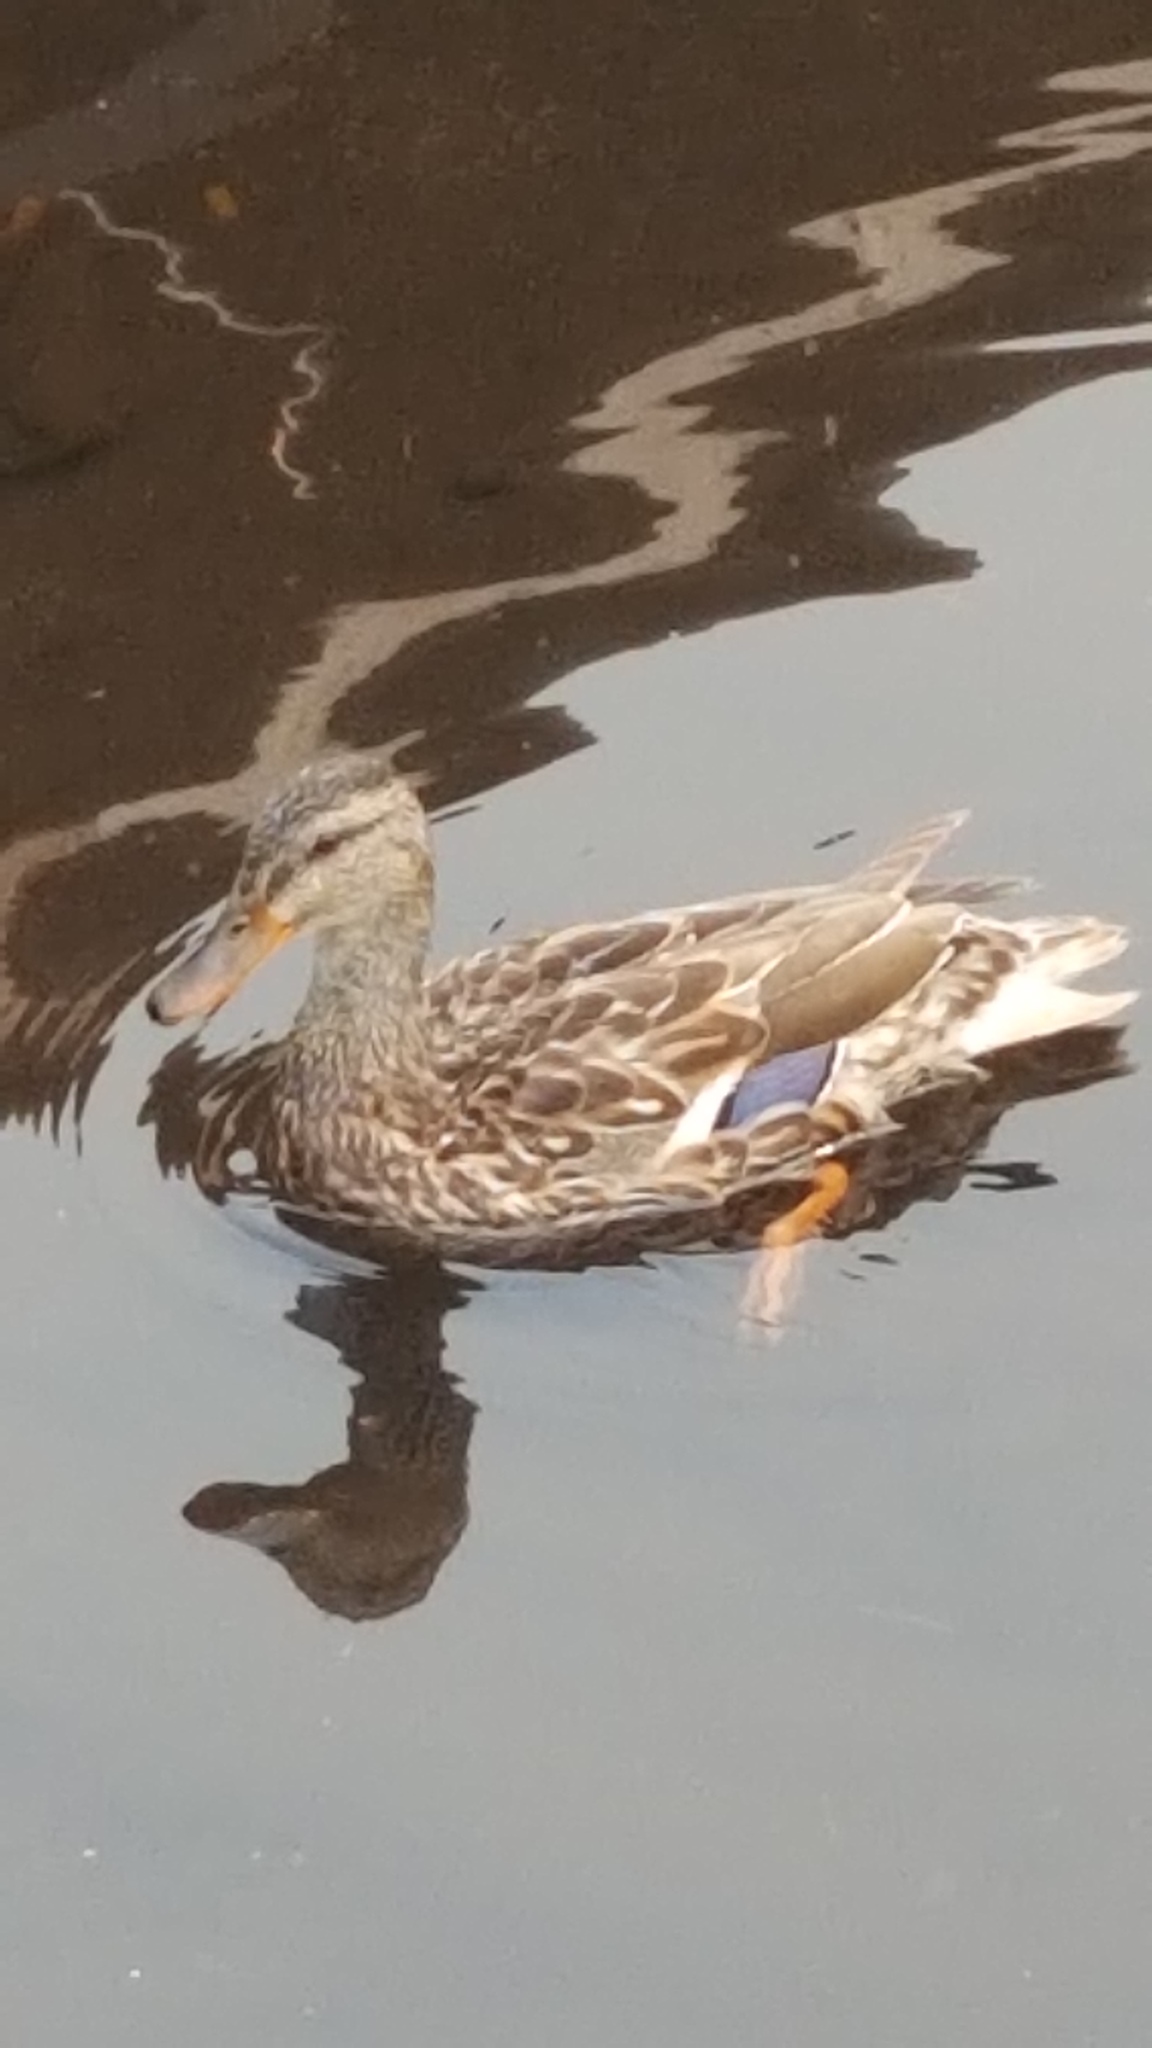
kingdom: Animalia
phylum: Chordata
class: Aves
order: Anseriformes
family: Anatidae
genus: Anas
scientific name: Anas platyrhynchos
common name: Mallard
